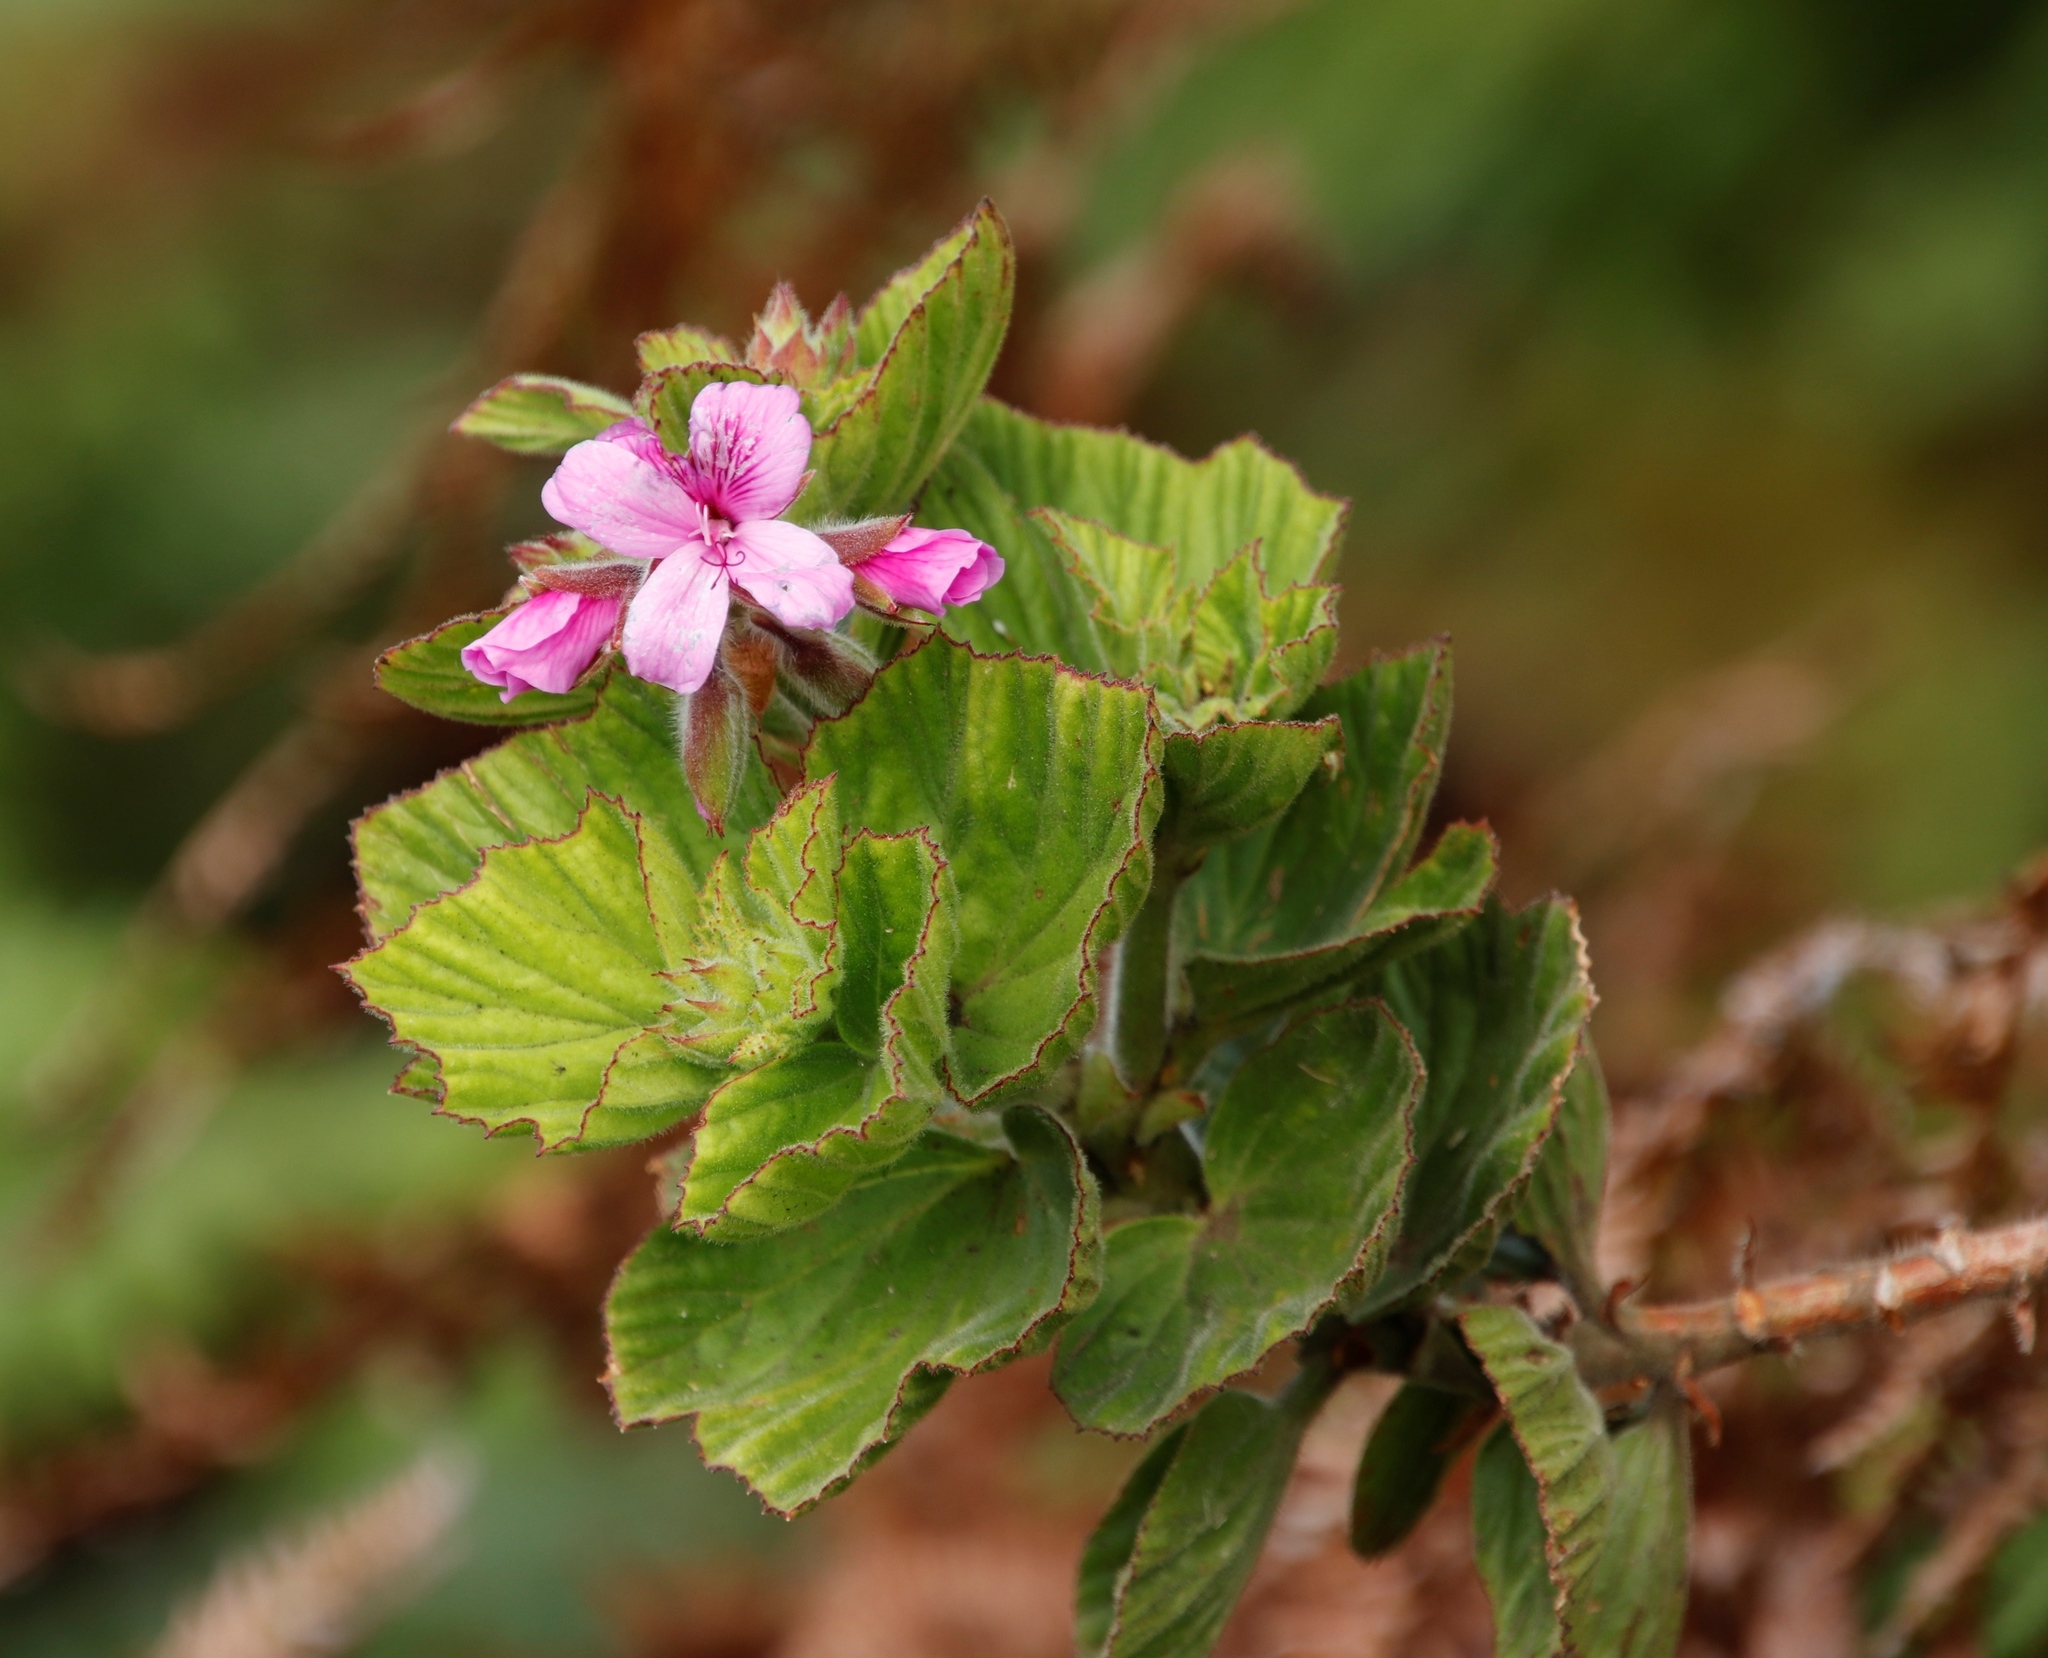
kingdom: Plantae
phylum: Tracheophyta
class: Magnoliopsida
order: Geraniales
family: Geraniaceae
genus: Pelargonium
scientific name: Pelargonium cucullatum
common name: Tree pelargonium
